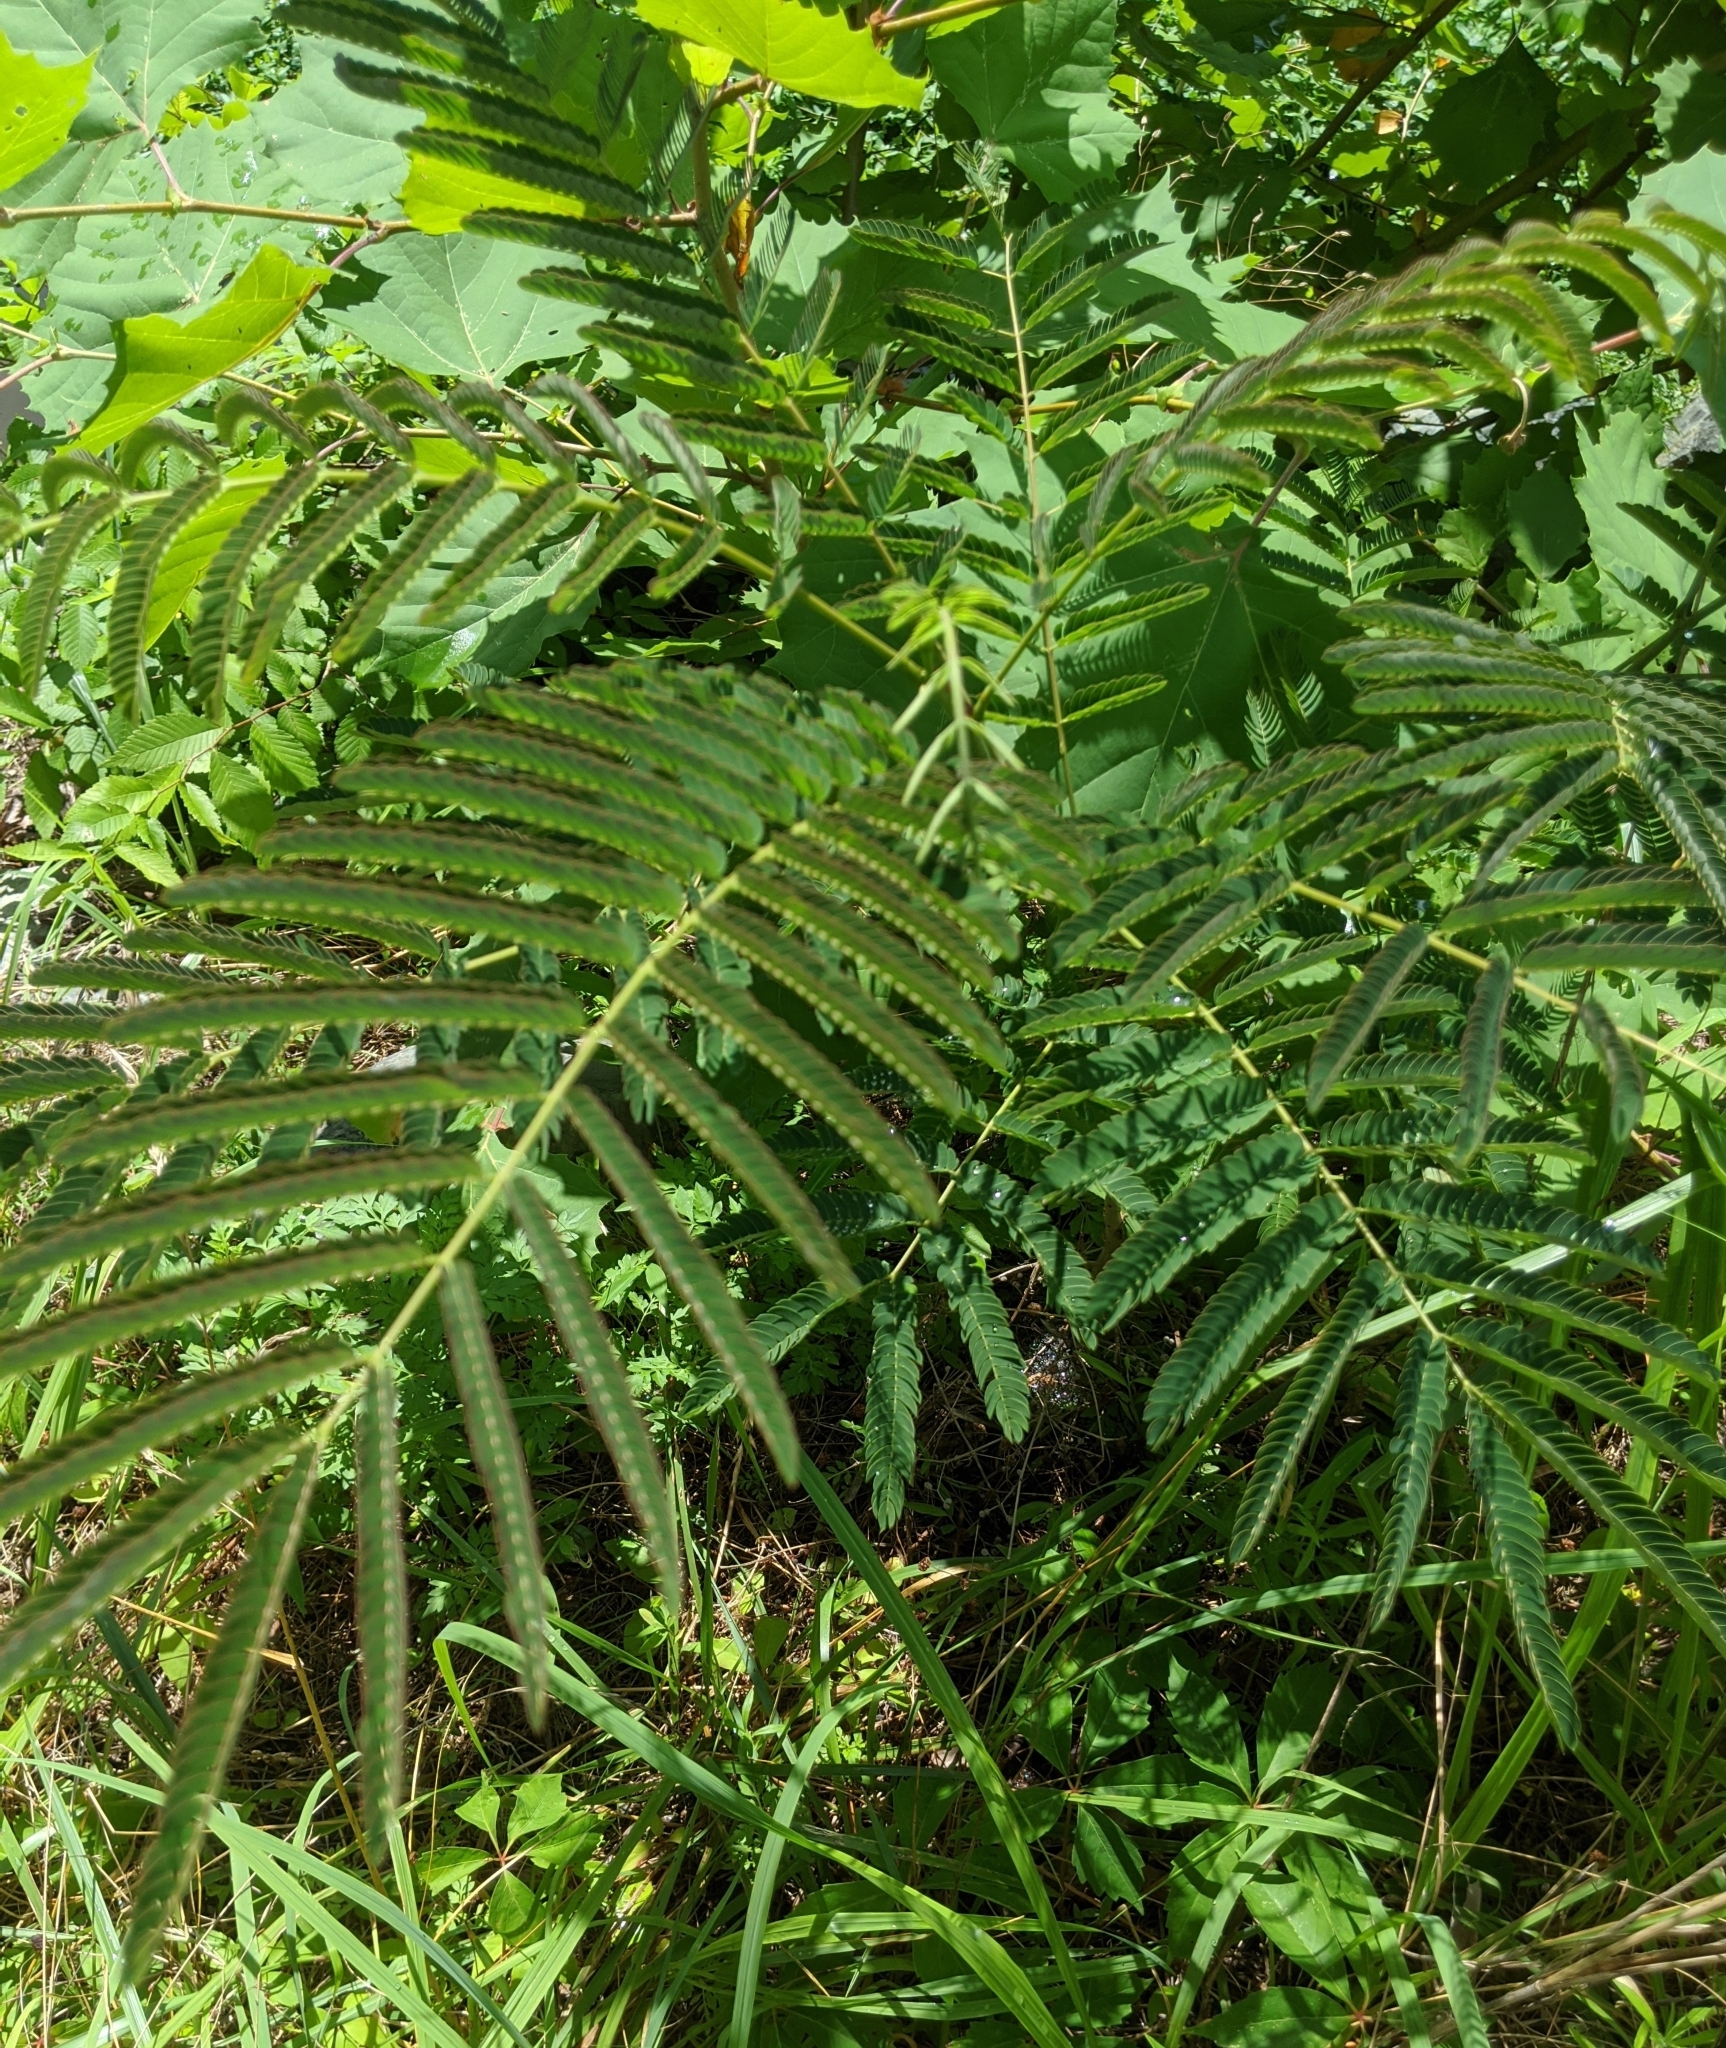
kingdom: Plantae
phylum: Tracheophyta
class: Magnoliopsida
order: Fabales
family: Fabaceae
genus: Albizia
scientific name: Albizia julibrissin
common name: Silktree
